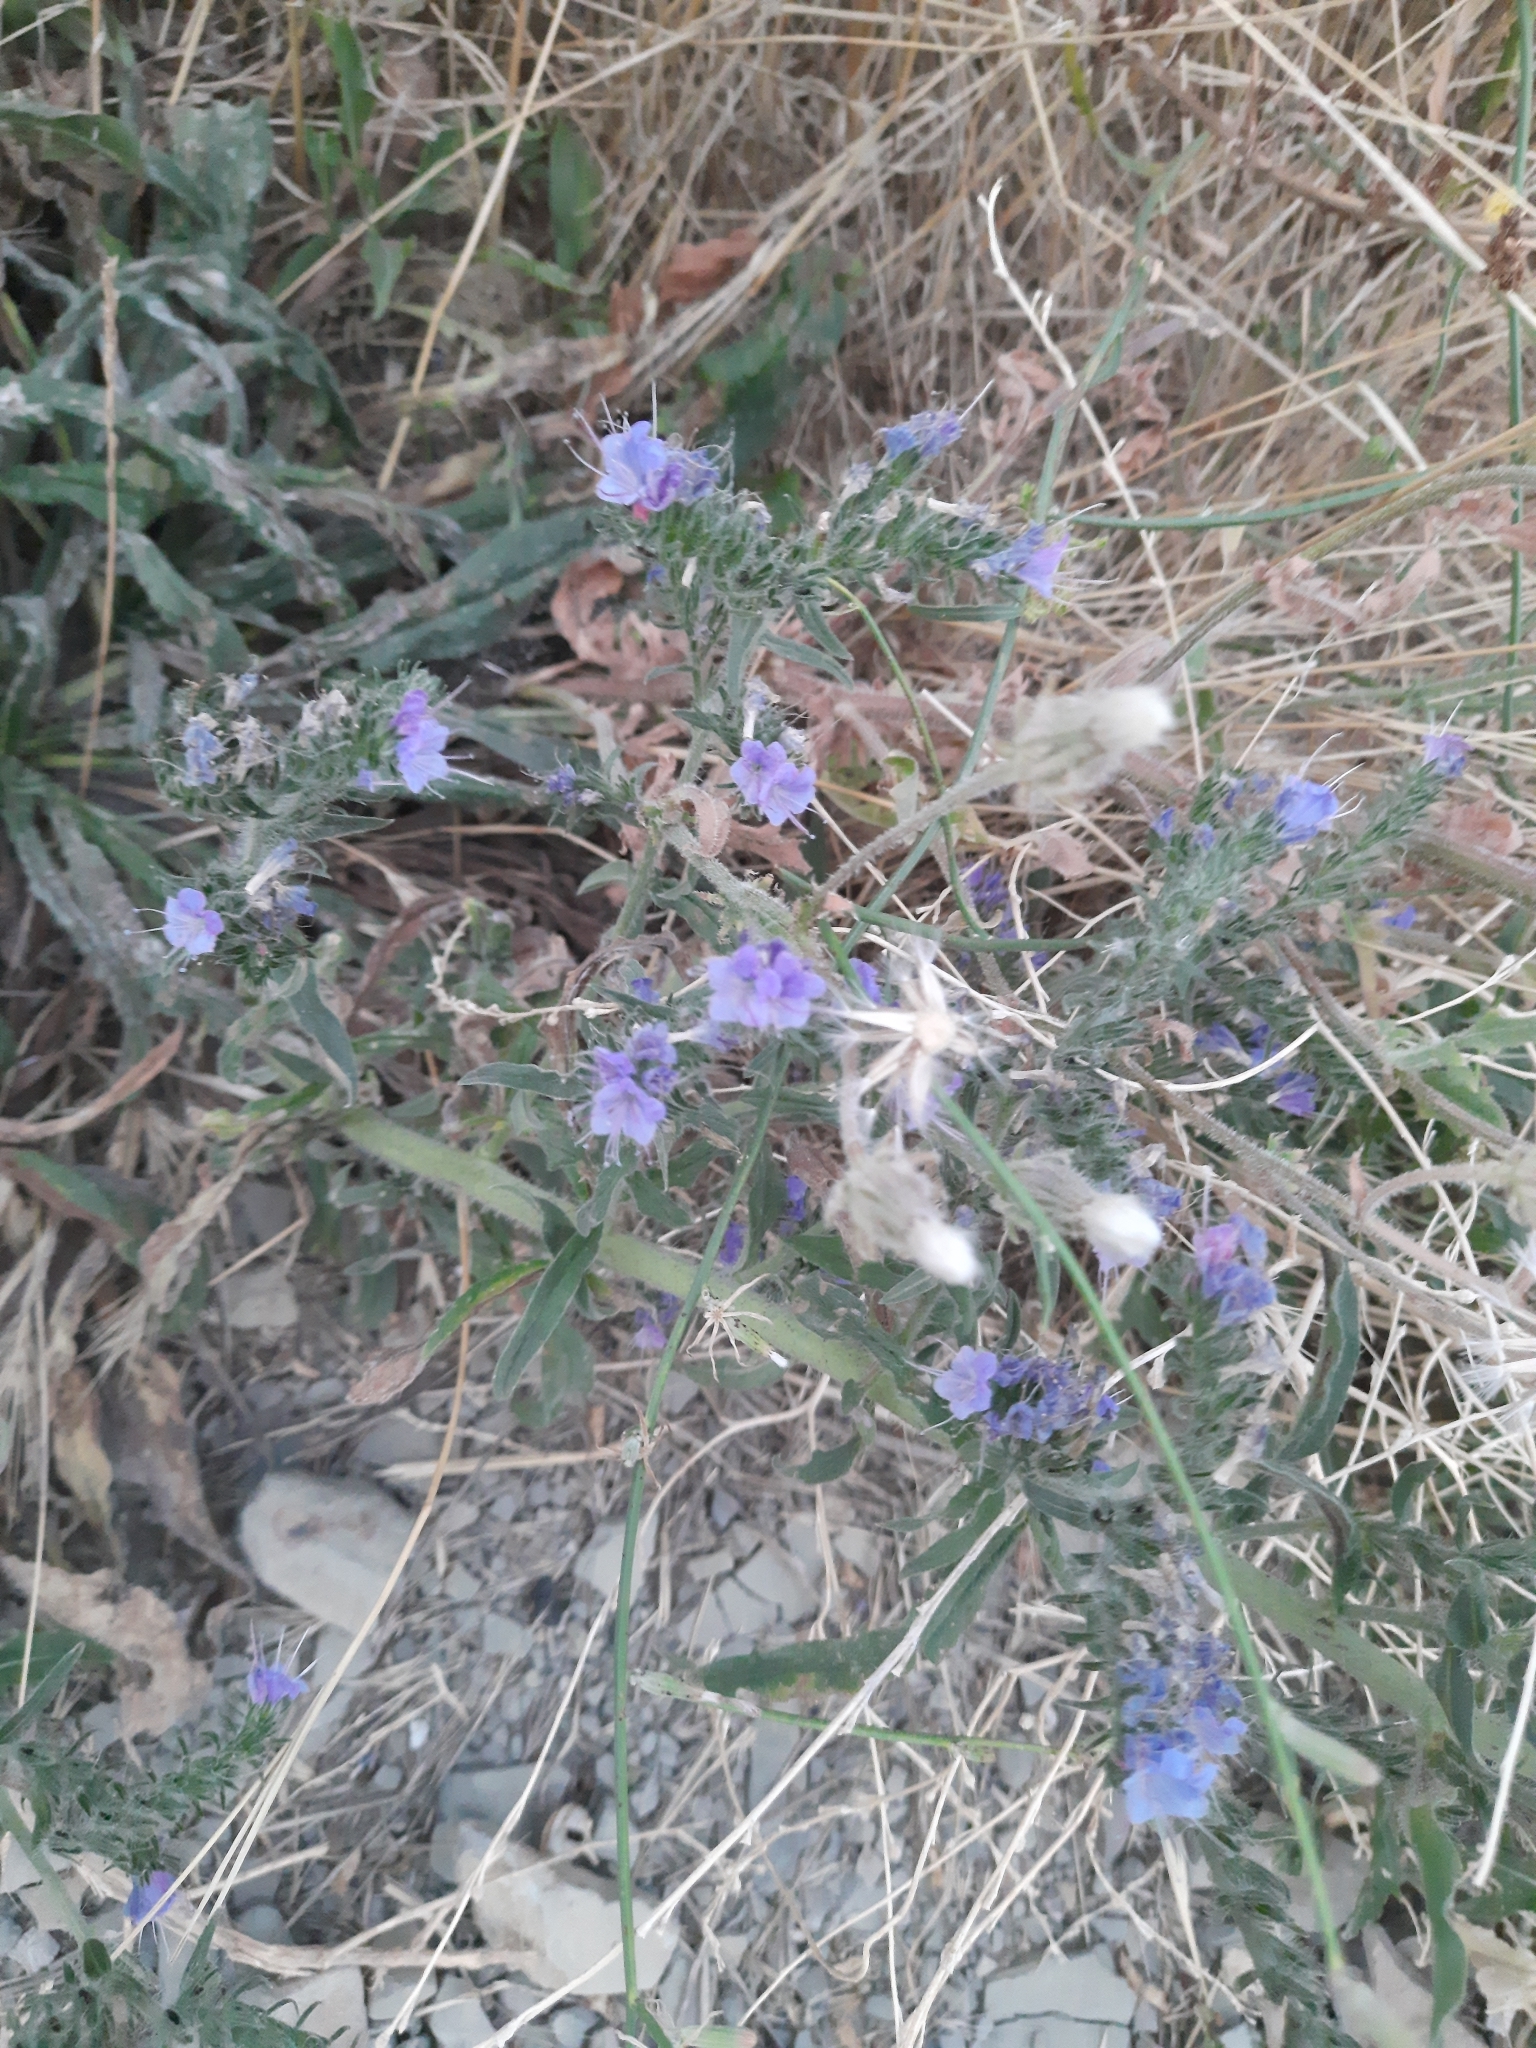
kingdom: Plantae
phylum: Tracheophyta
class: Magnoliopsida
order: Boraginales
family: Boraginaceae
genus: Echium
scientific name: Echium vulgare
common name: Common viper's bugloss
